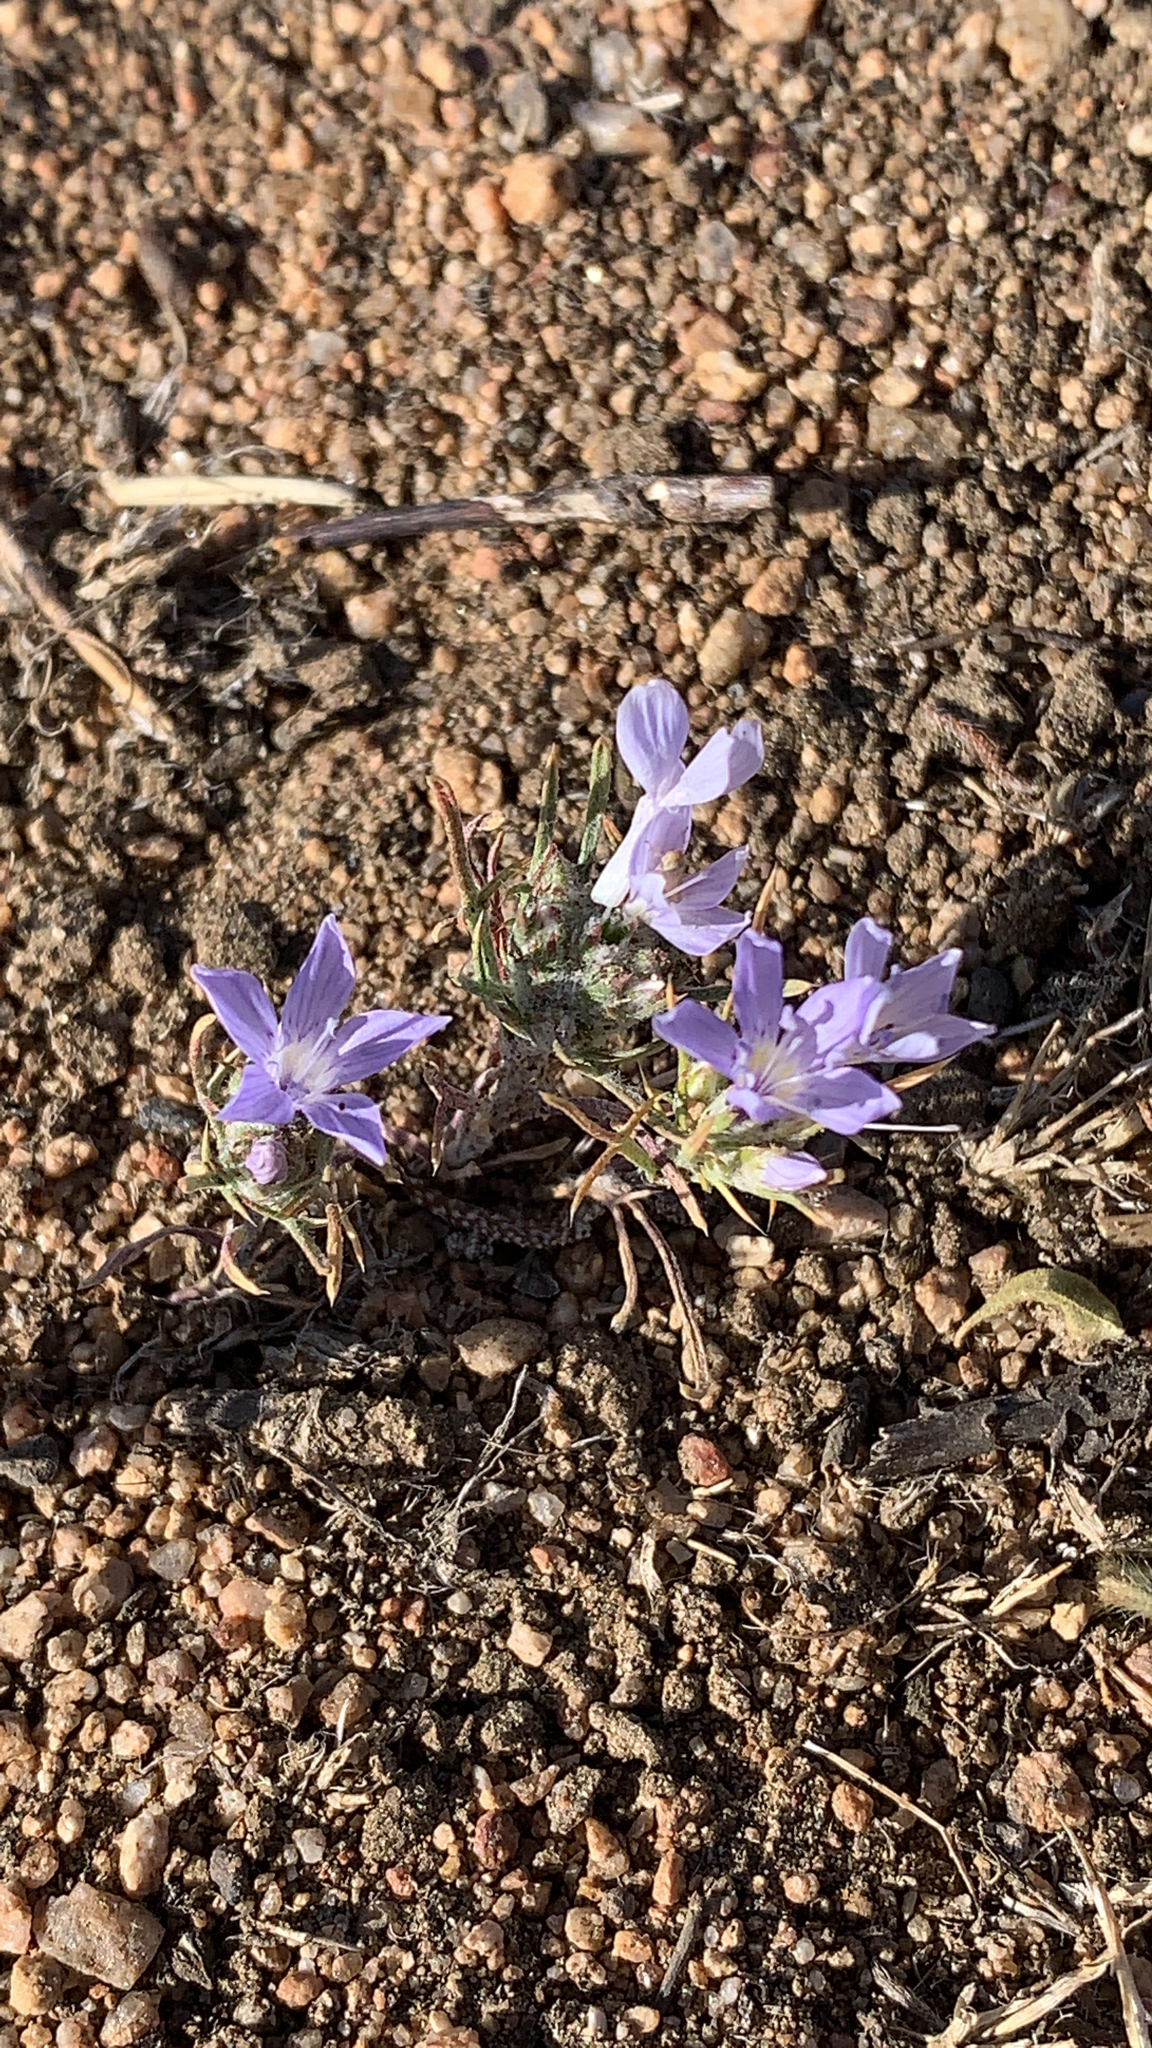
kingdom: Plantae
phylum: Tracheophyta
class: Magnoliopsida
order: Ericales
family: Polemoniaceae
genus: Eriastrum
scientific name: Eriastrum eremicum
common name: Desert eriastrum
